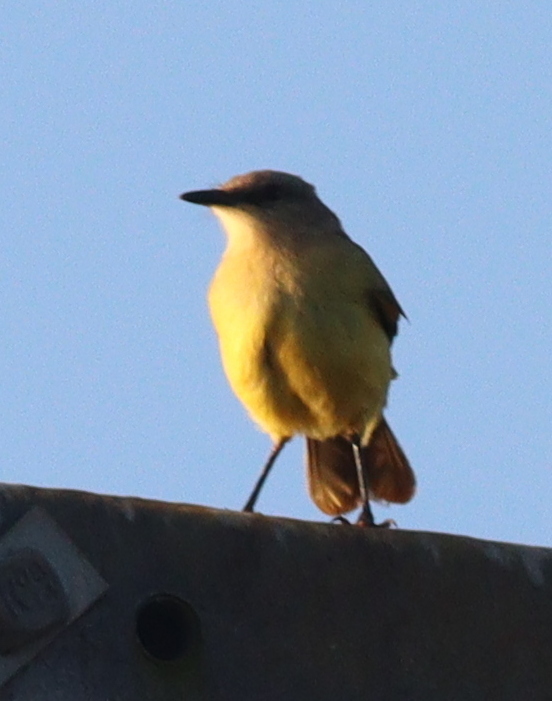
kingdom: Animalia
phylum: Chordata
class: Aves
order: Passeriformes
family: Tyrannidae
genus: Machetornis
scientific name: Machetornis rixosa
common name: Cattle tyrant
